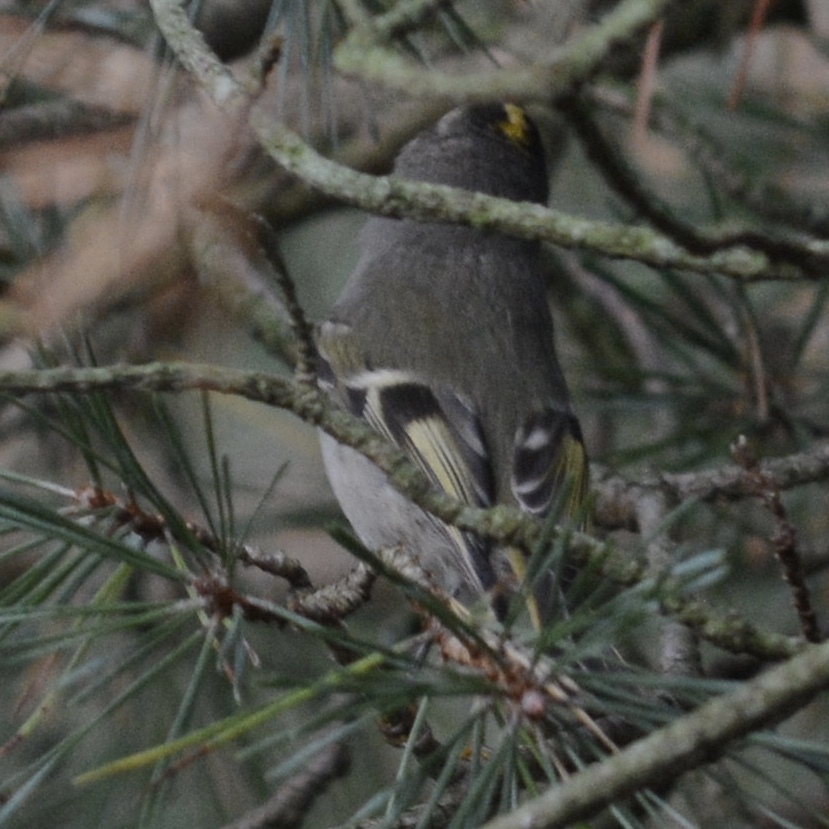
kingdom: Animalia
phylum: Chordata
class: Aves
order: Passeriformes
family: Regulidae
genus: Regulus
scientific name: Regulus satrapa
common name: Golden-crowned kinglet
